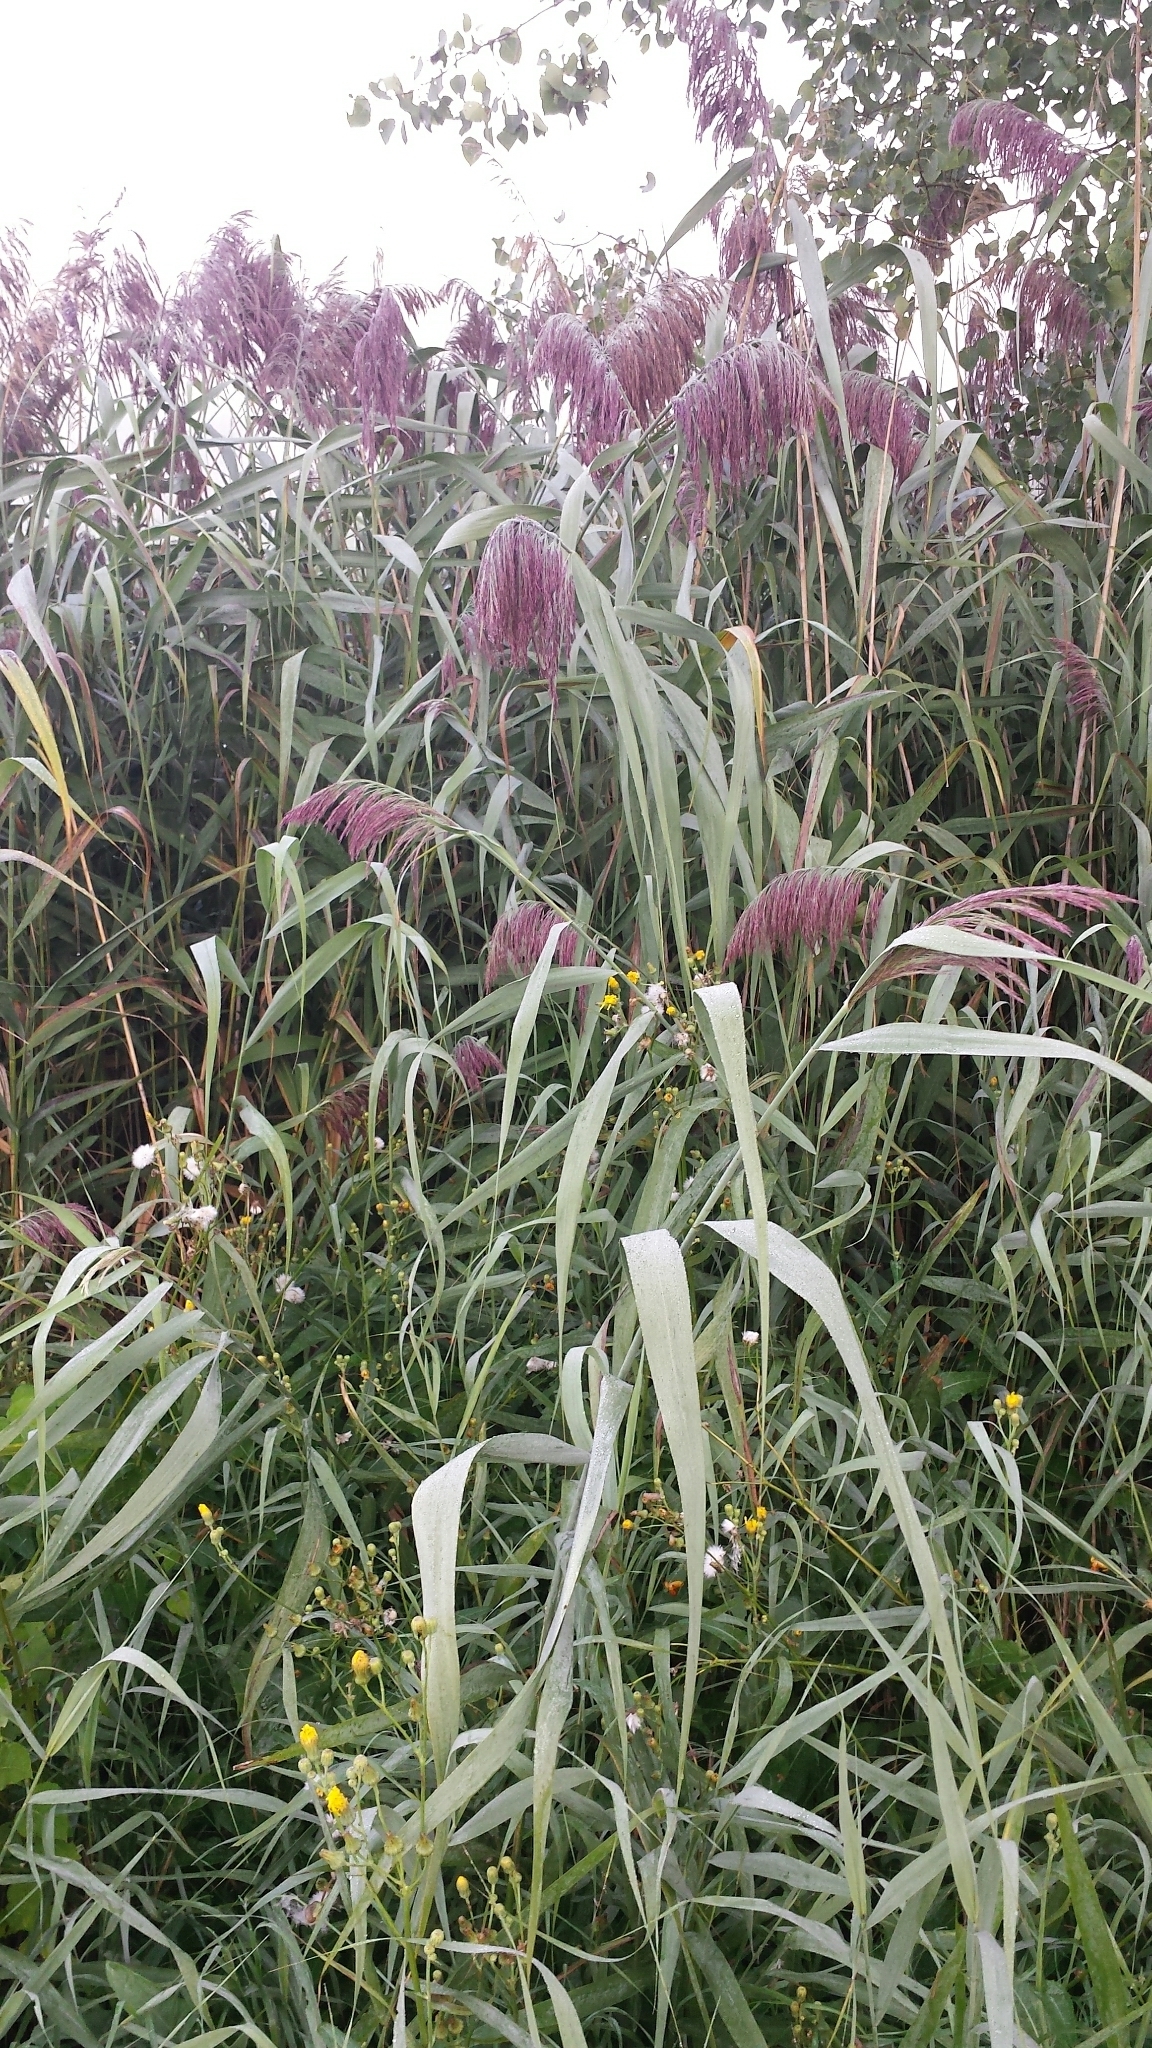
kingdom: Plantae
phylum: Tracheophyta
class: Liliopsida
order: Poales
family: Poaceae
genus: Phragmites
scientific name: Phragmites australis
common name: Common reed
